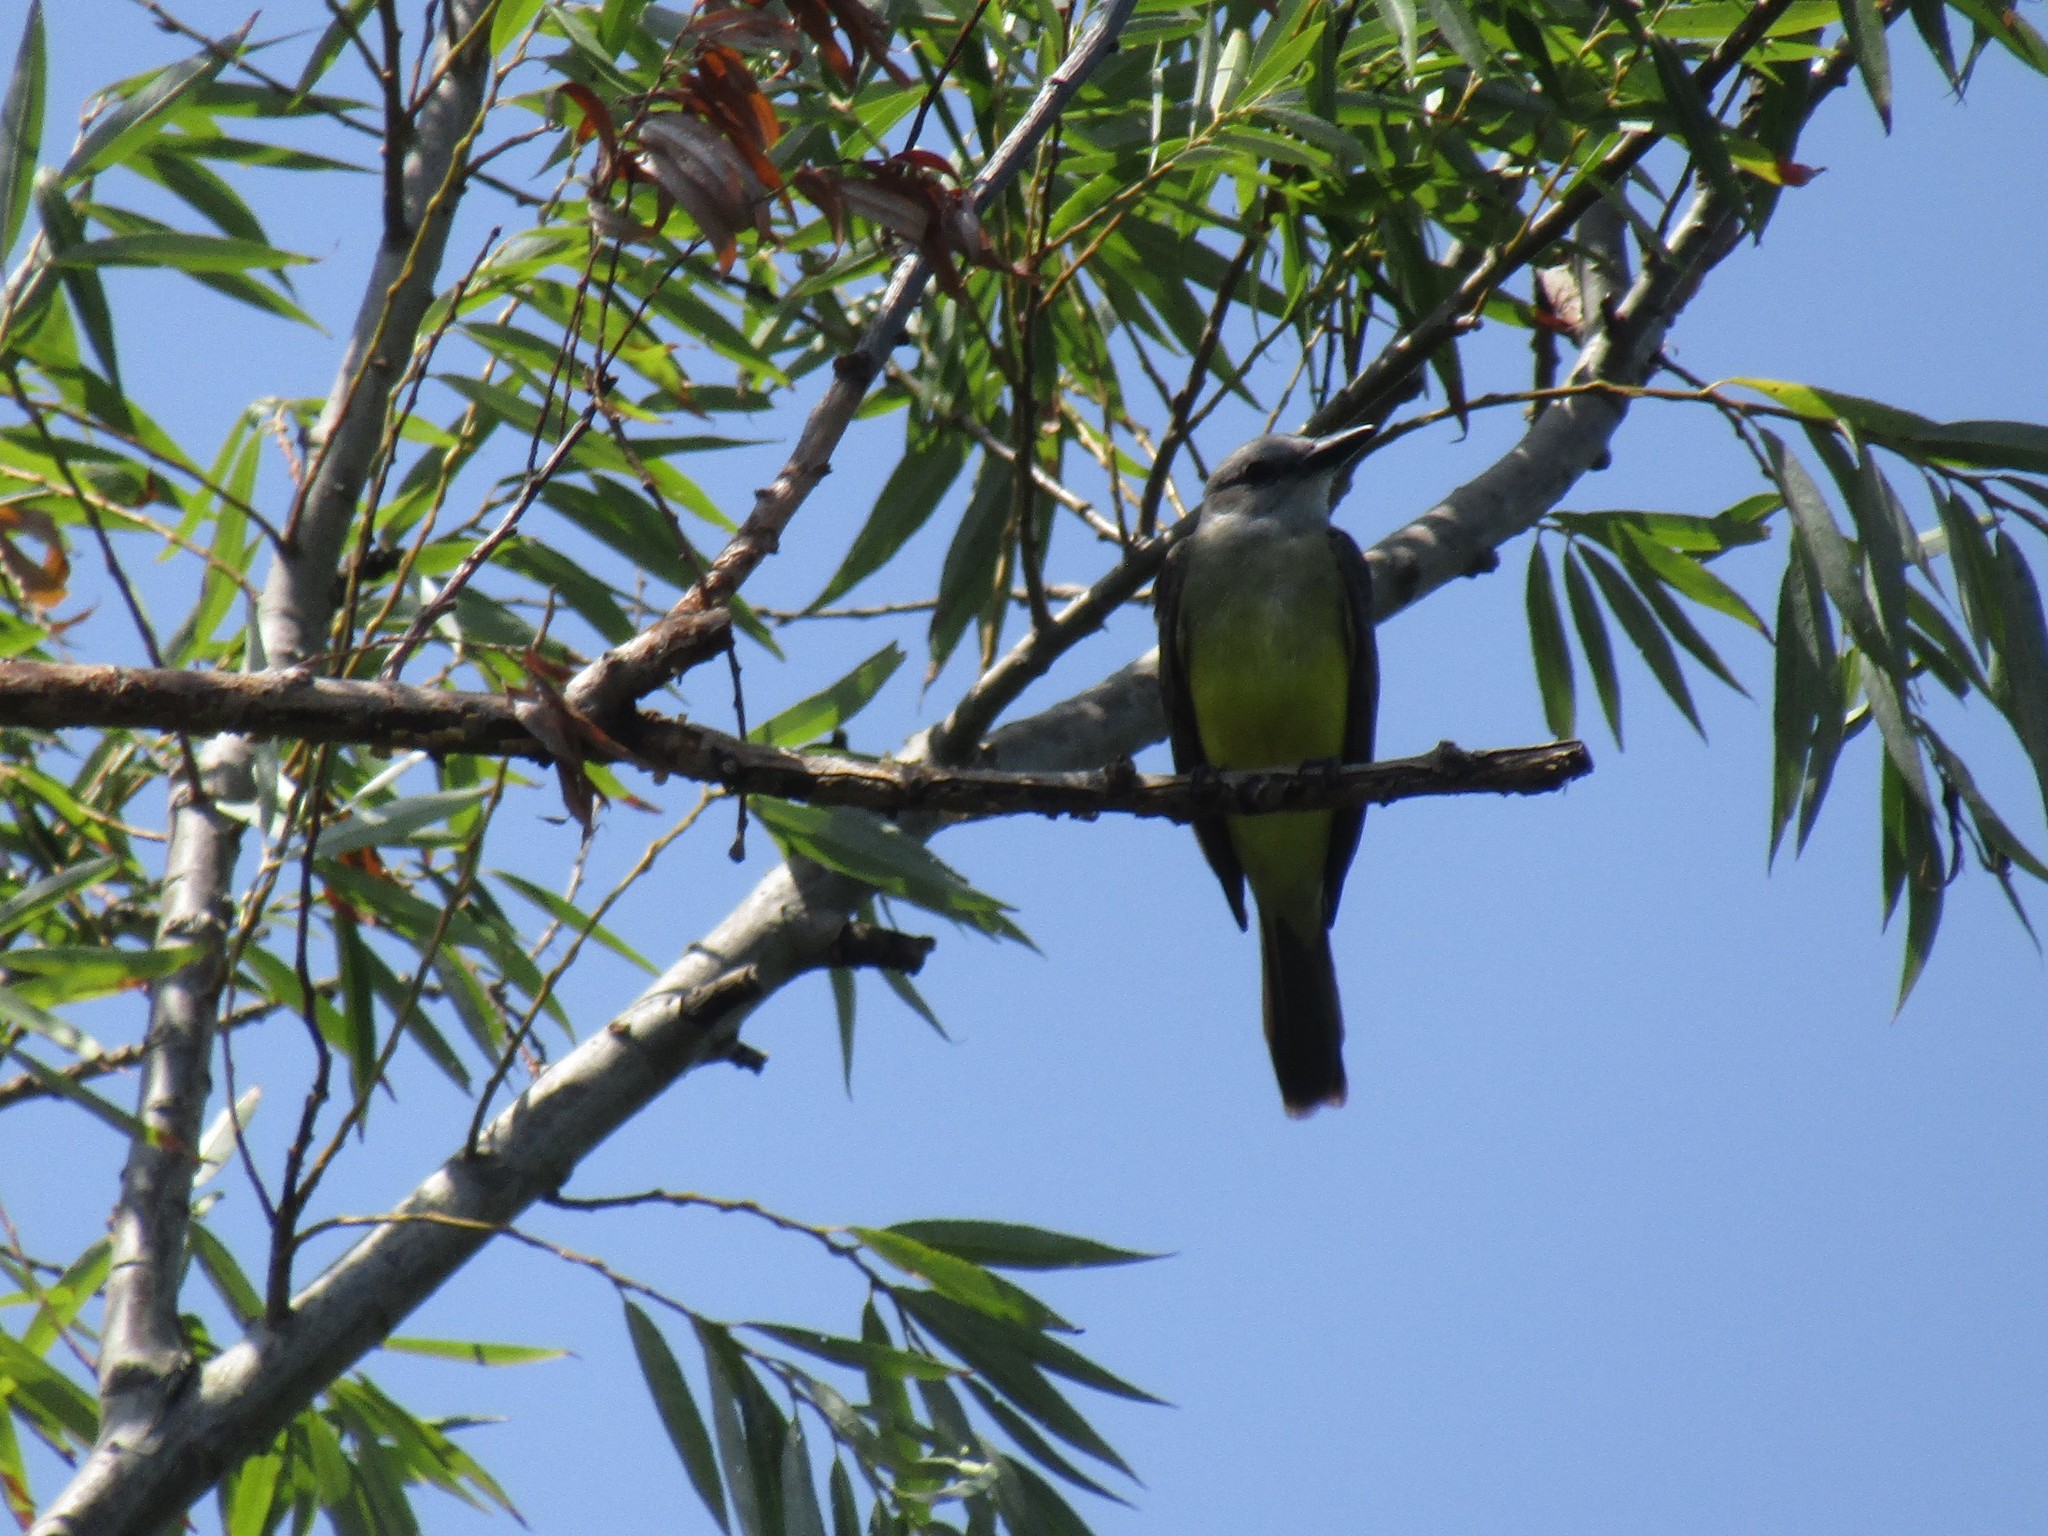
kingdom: Animalia
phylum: Chordata
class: Aves
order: Passeriformes
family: Tyrannidae
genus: Tyrannus
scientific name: Tyrannus melancholicus
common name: Tropical kingbird
